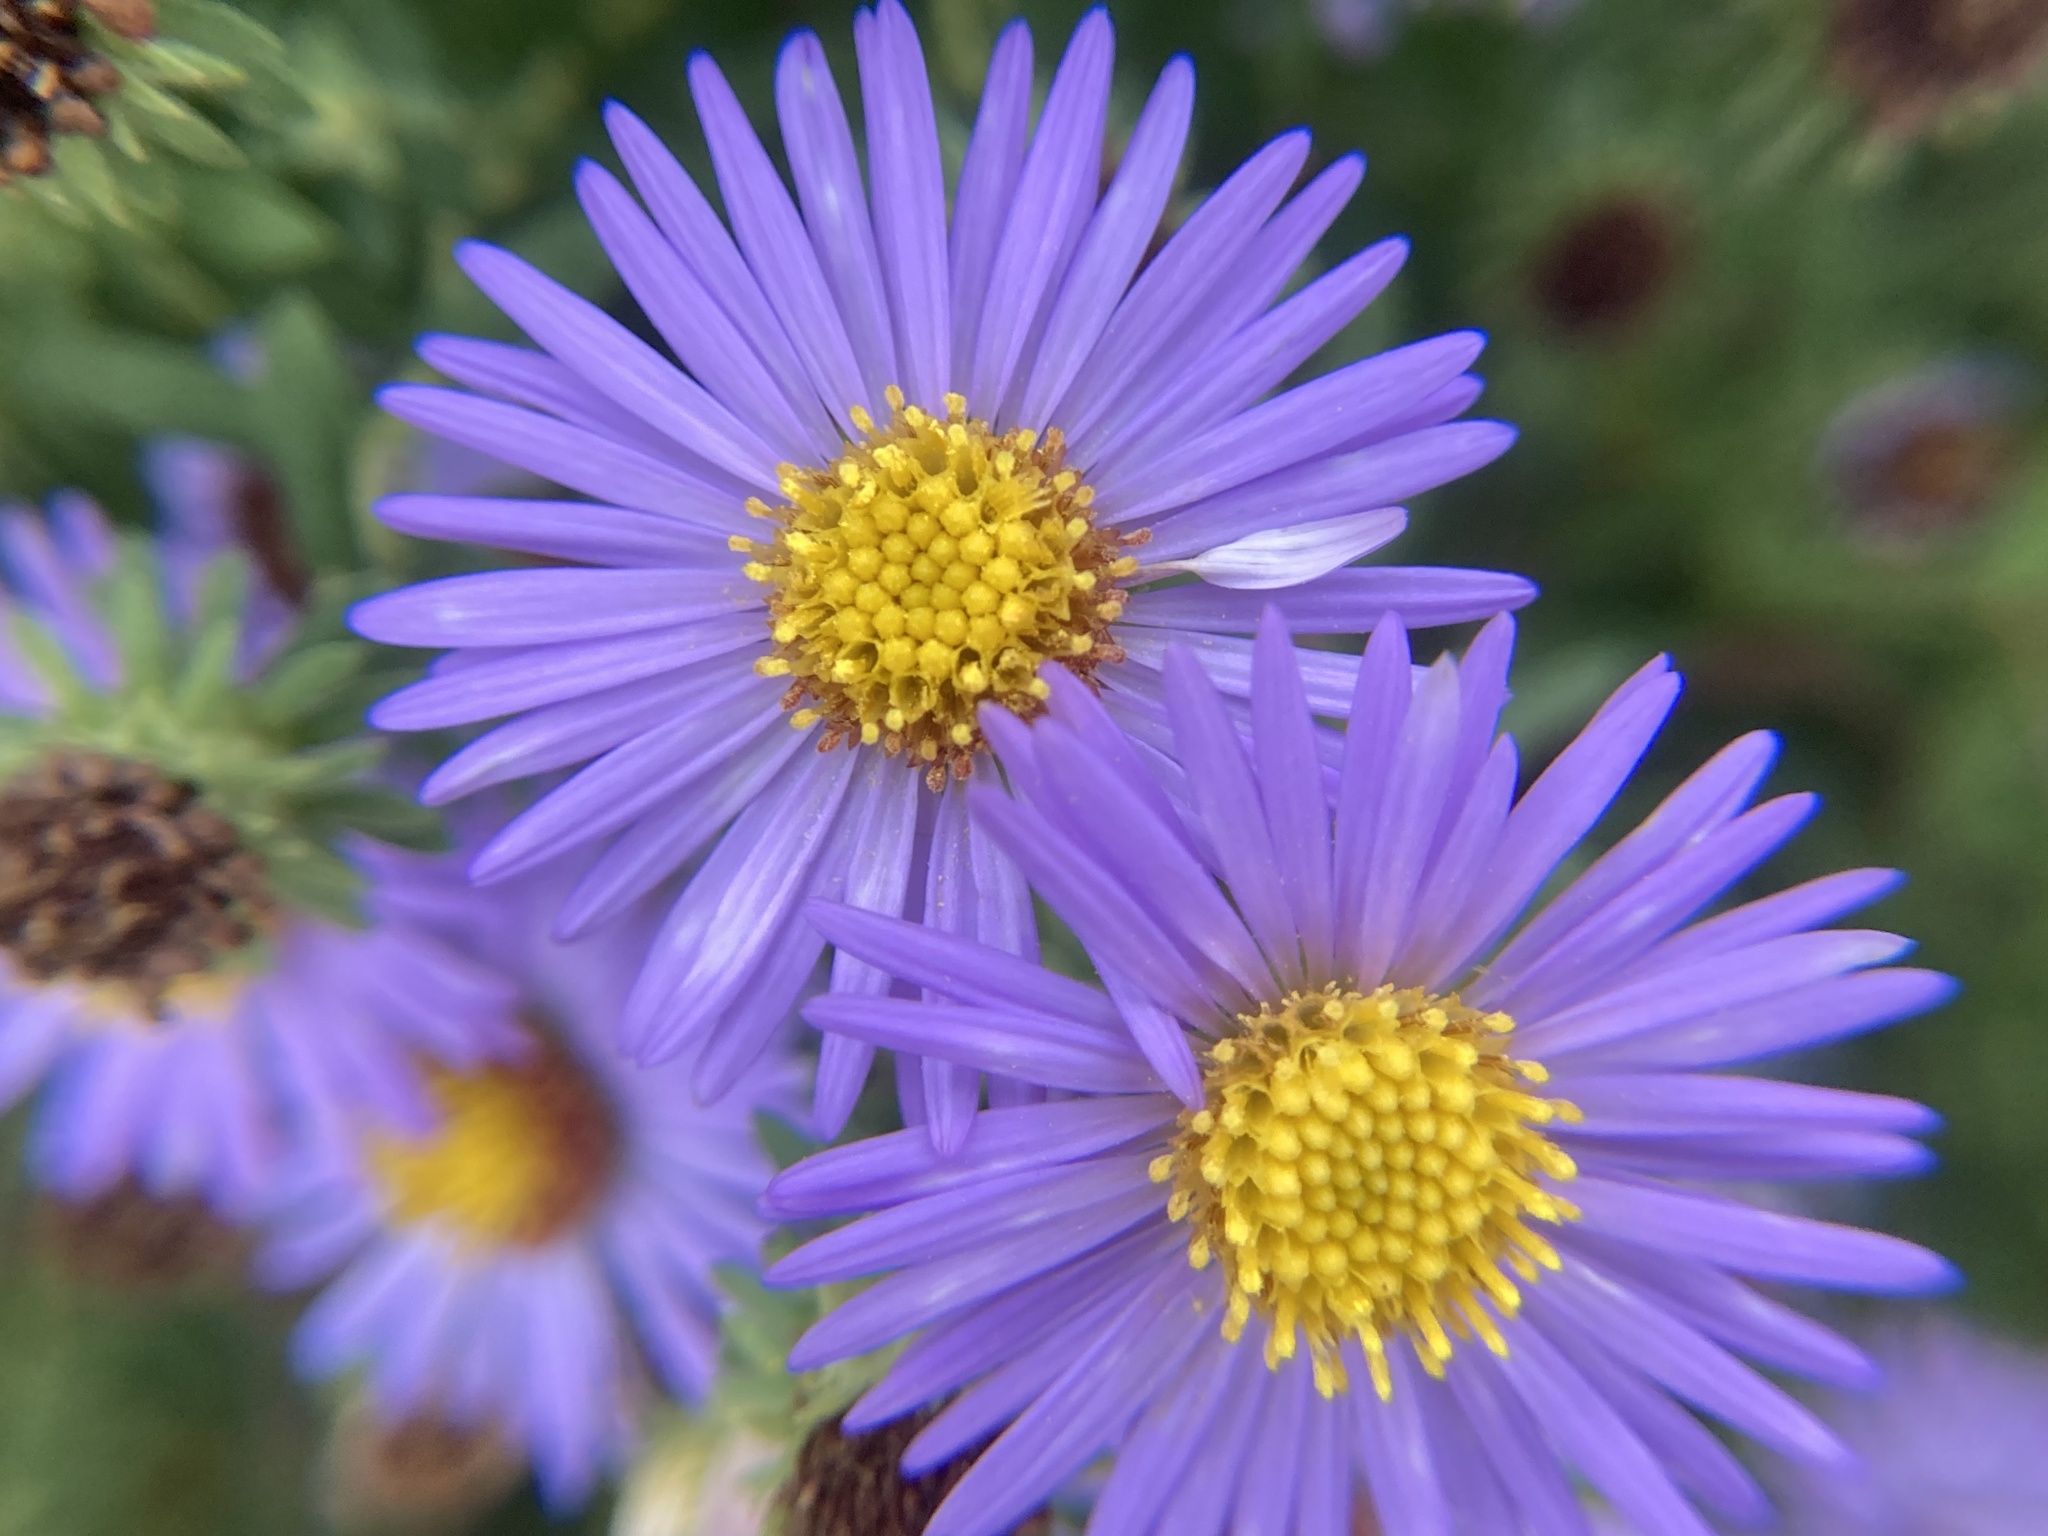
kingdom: Plantae
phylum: Tracheophyta
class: Magnoliopsida
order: Asterales
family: Asteraceae
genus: Symphyotrichum
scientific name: Symphyotrichum novae-angliae
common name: Michaelmas daisy
